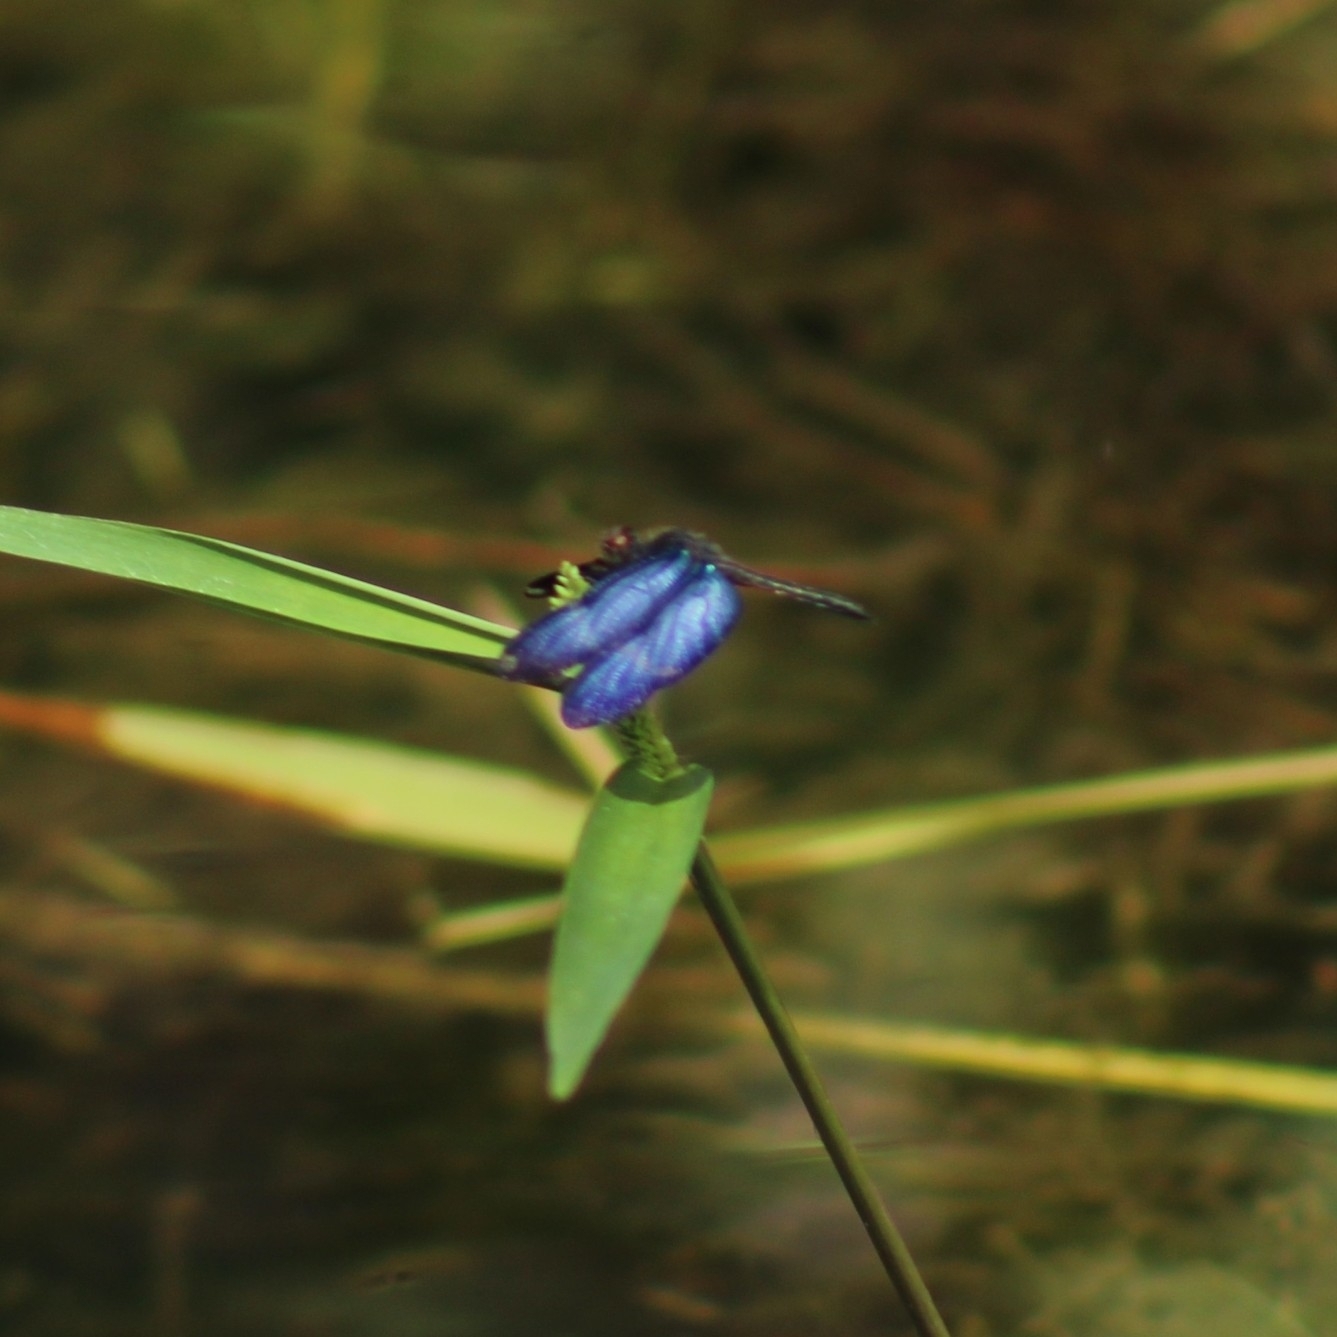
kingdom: Animalia
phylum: Arthropoda
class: Insecta
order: Odonata
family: Libellulidae
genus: Zenithoptera
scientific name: Zenithoptera lanei
